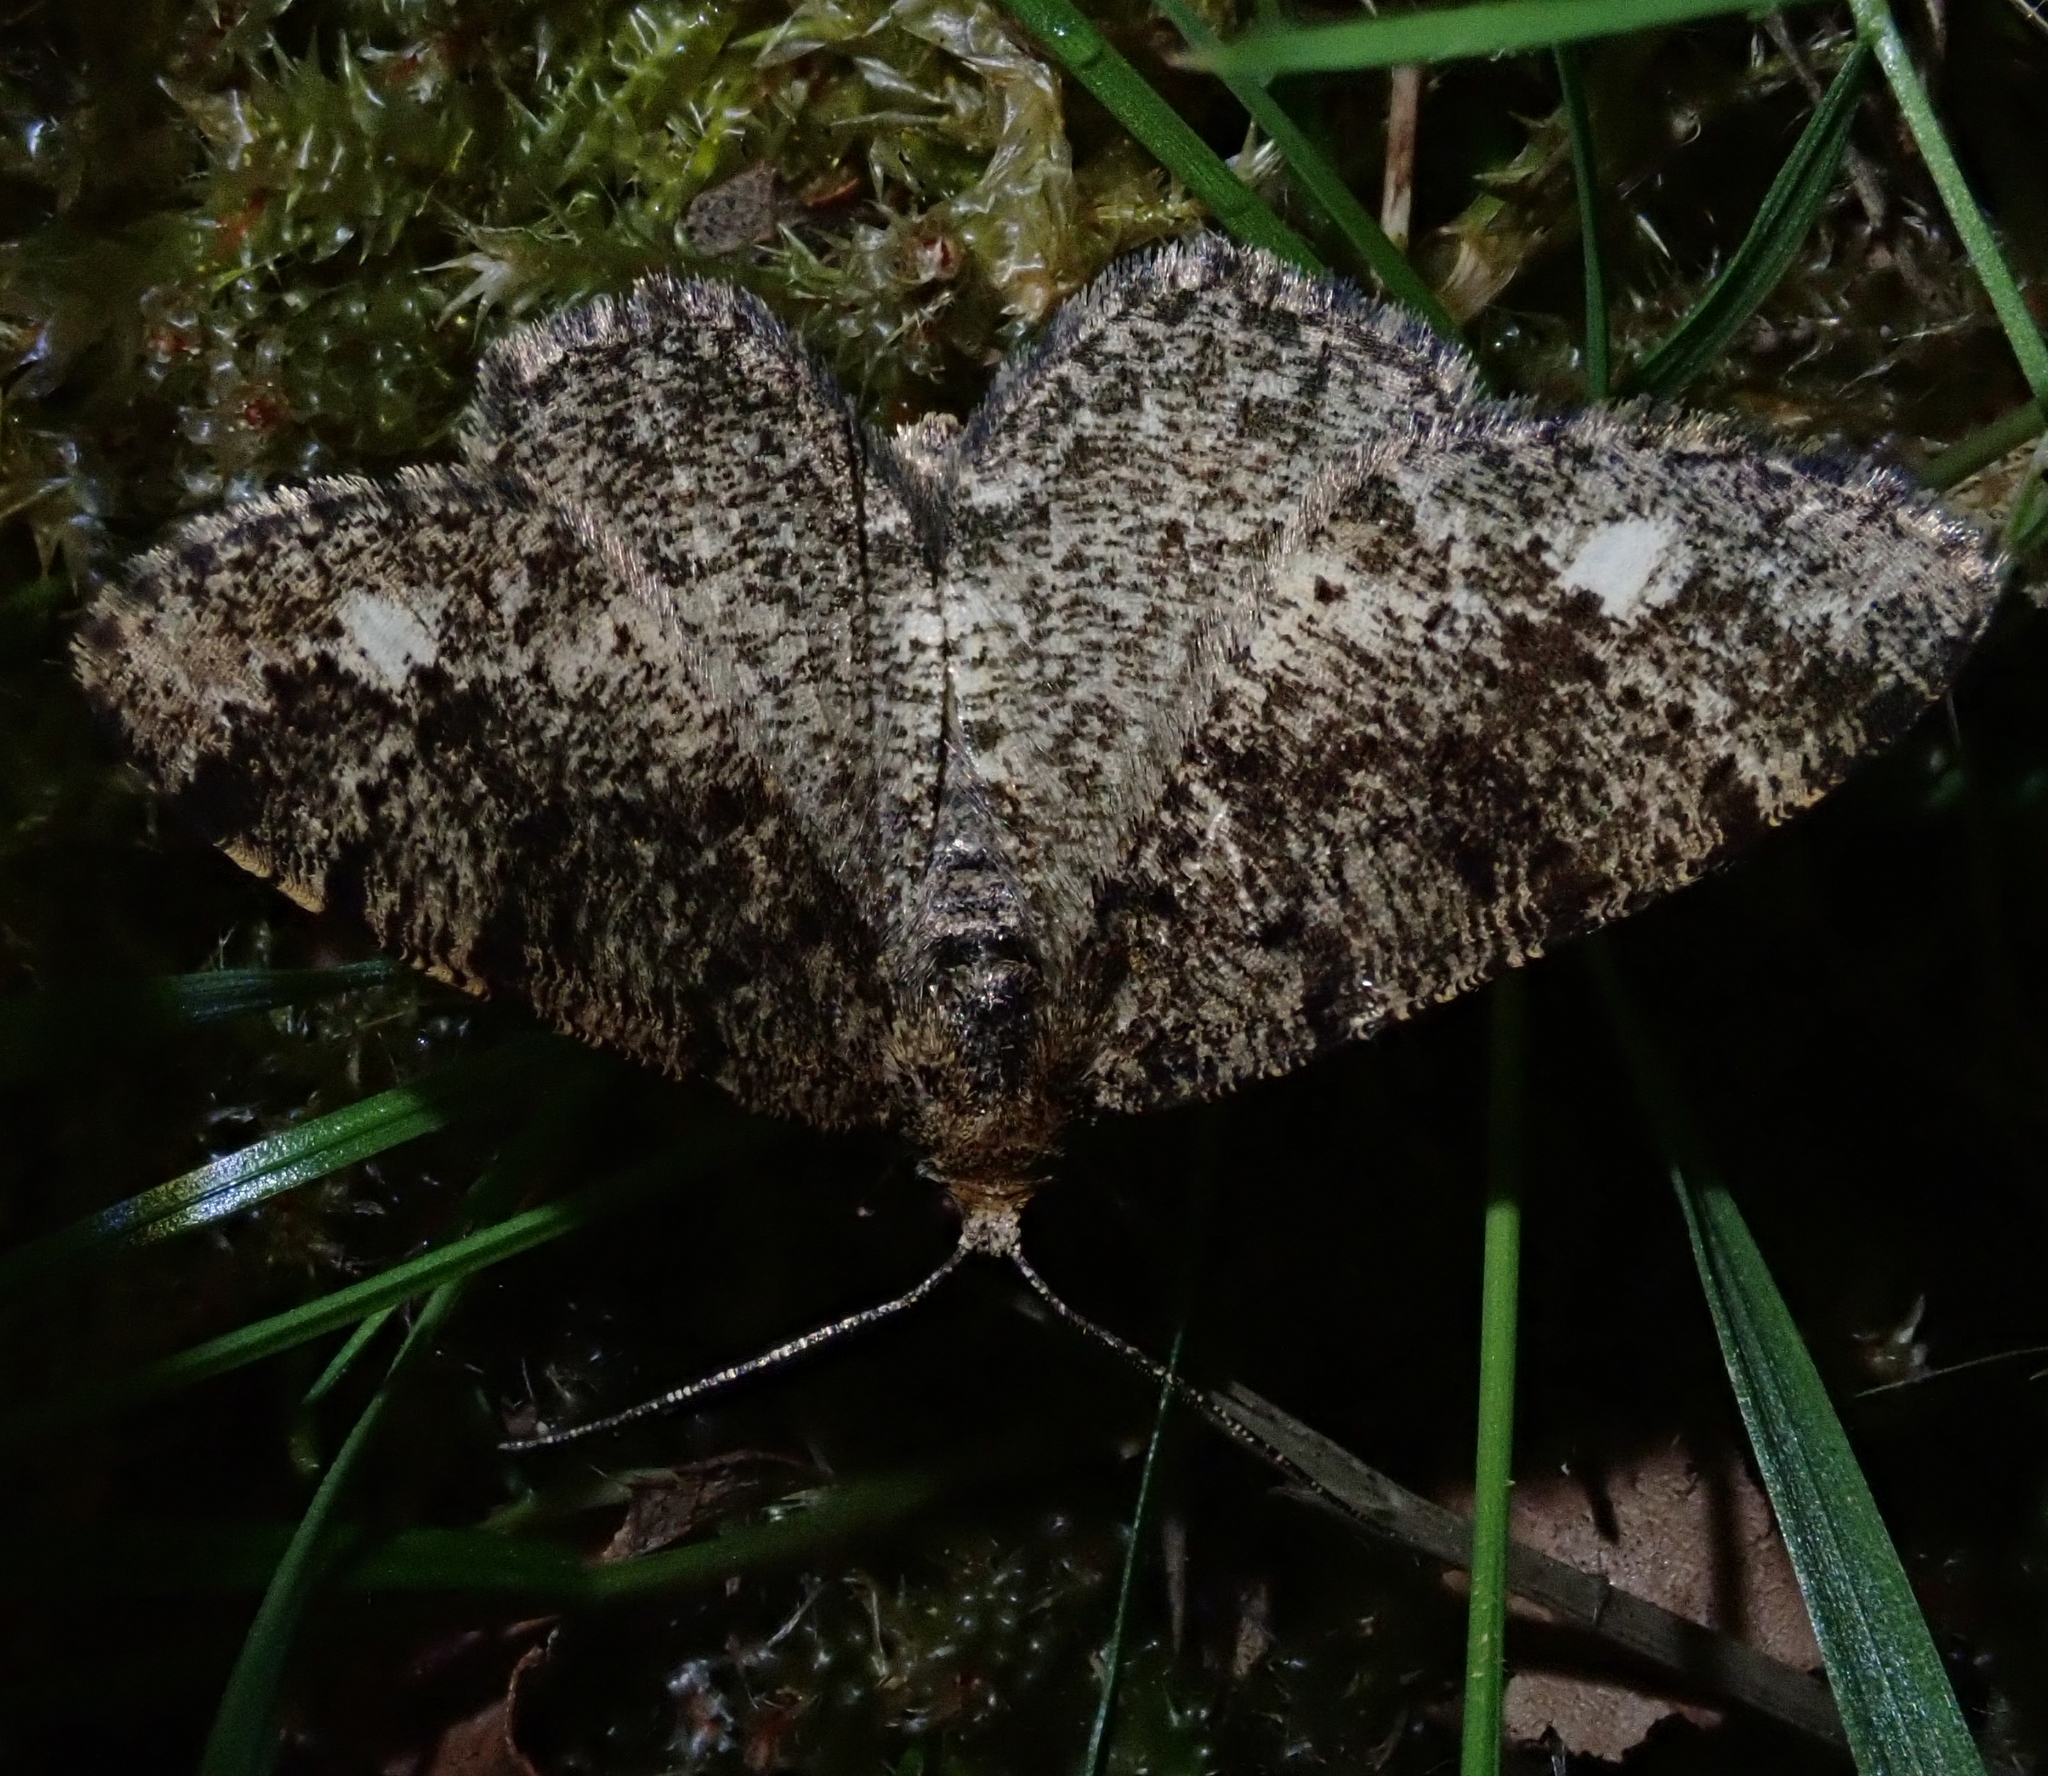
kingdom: Animalia
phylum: Arthropoda
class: Insecta
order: Lepidoptera
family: Geometridae
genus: Parectropis
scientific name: Parectropis similaria
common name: Brindled white-spot
